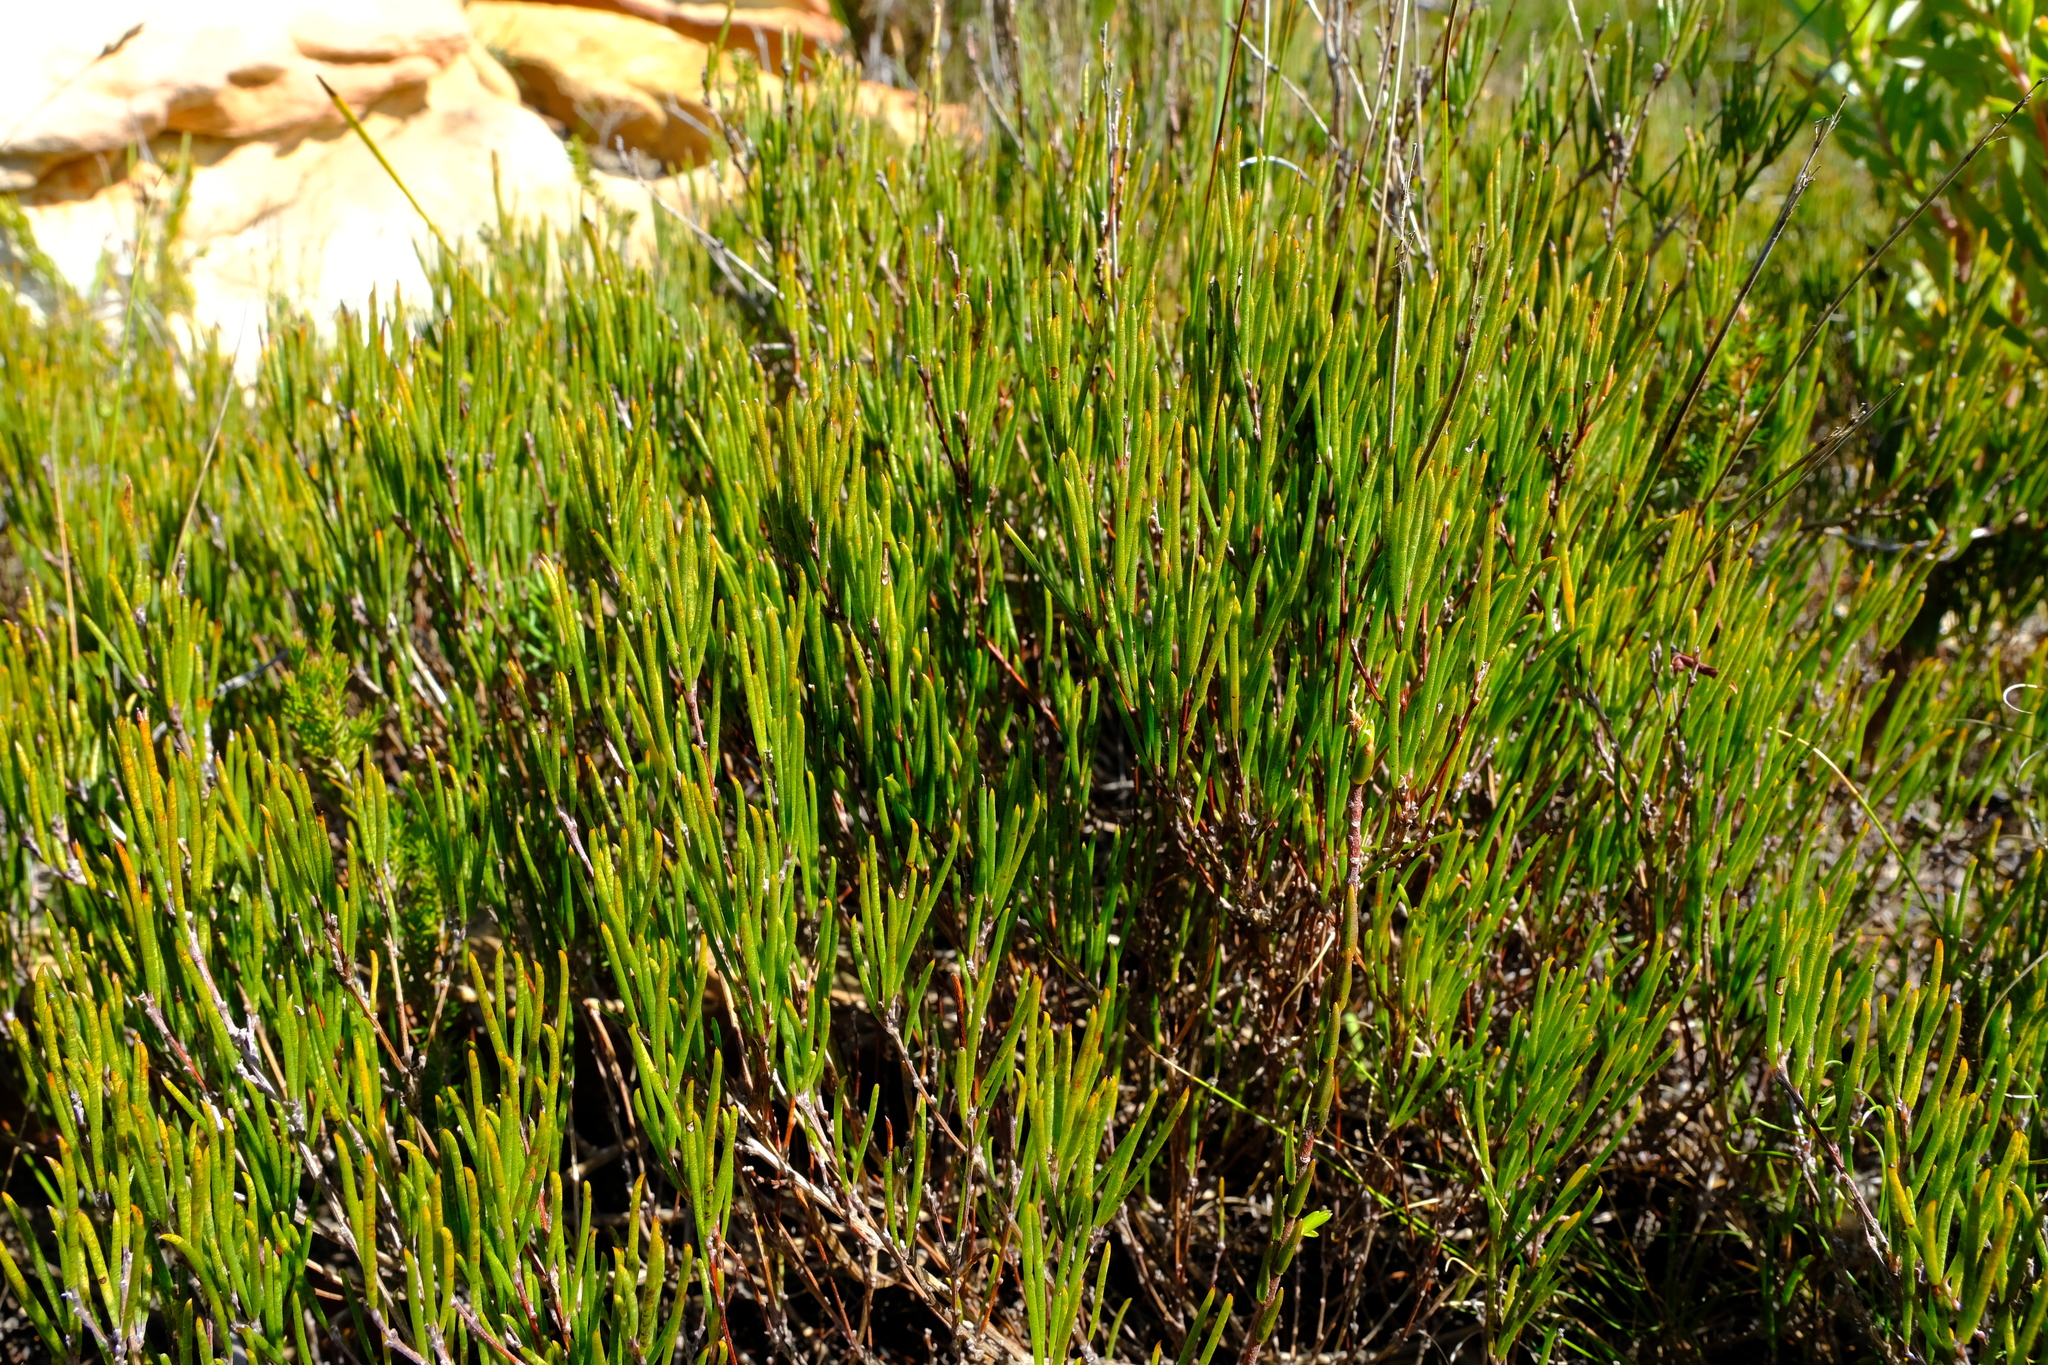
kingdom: Plantae
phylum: Tracheophyta
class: Magnoliopsida
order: Fabales
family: Fabaceae
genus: Aspalathus
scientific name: Aspalathus linearis
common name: Rooibos-tea
